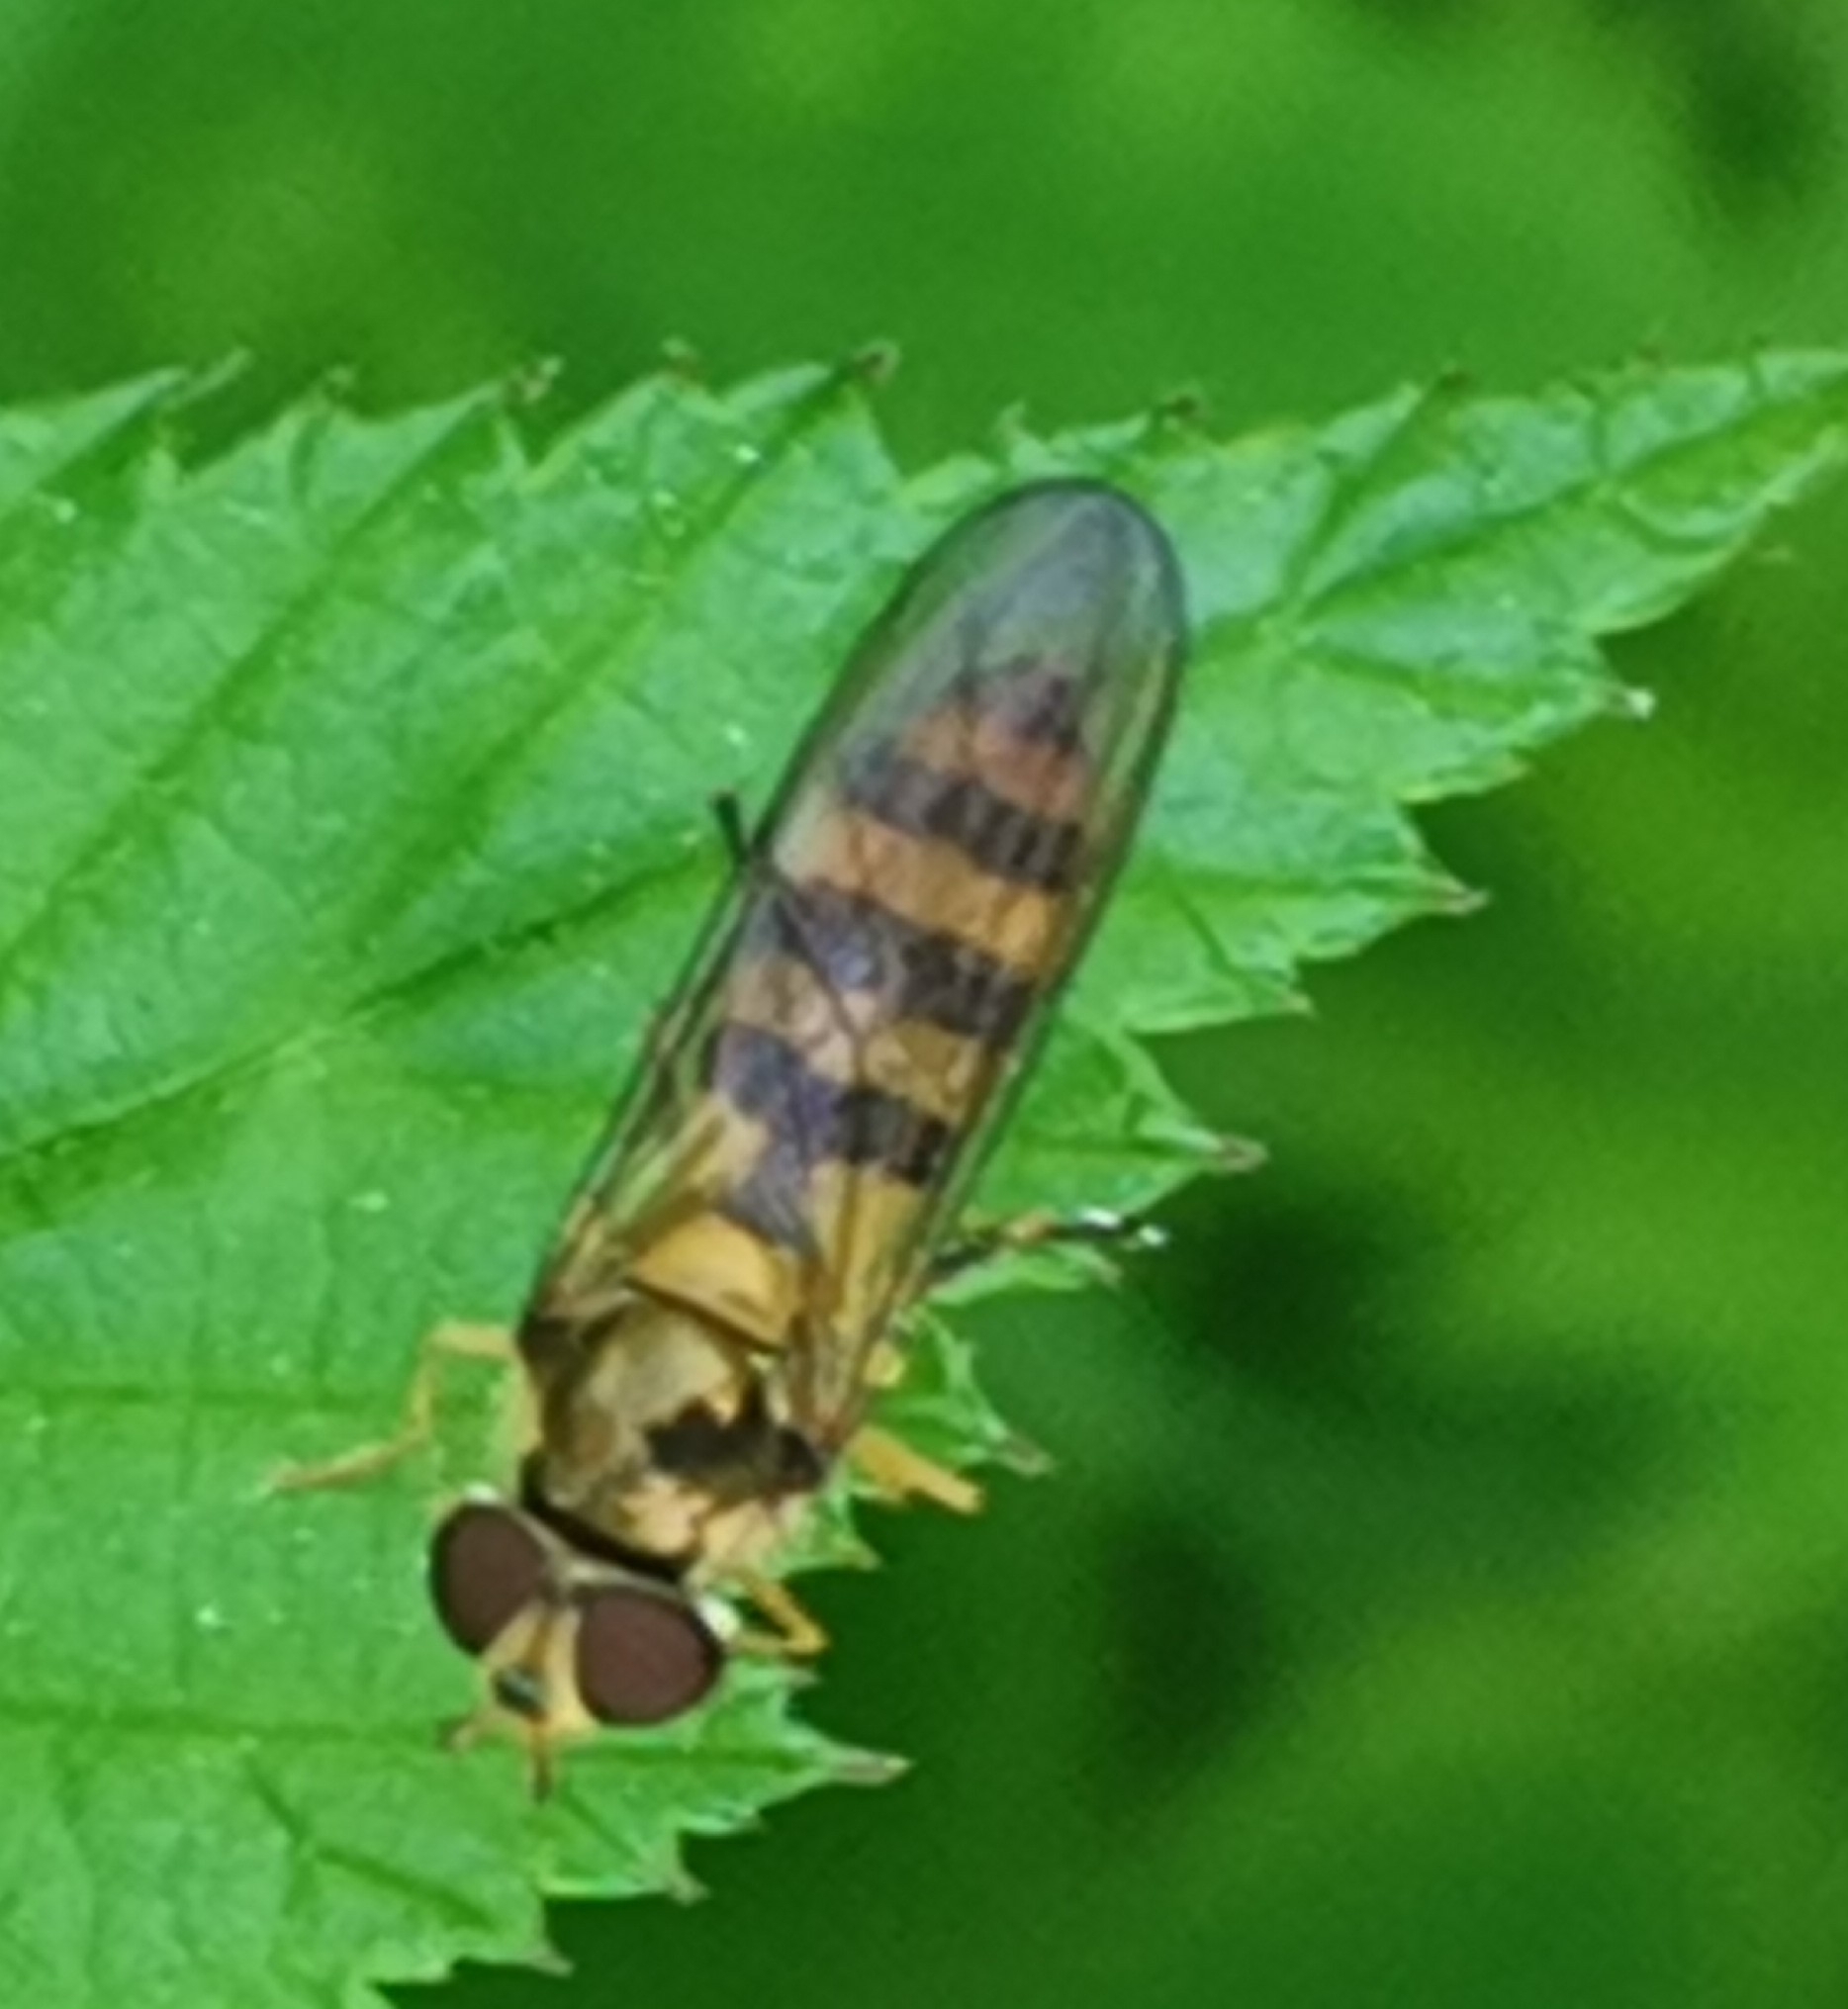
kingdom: Animalia
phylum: Arthropoda
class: Insecta
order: Diptera
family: Syrphidae
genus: Meliscaeva
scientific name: Meliscaeva cinctella
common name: American thintail fly
